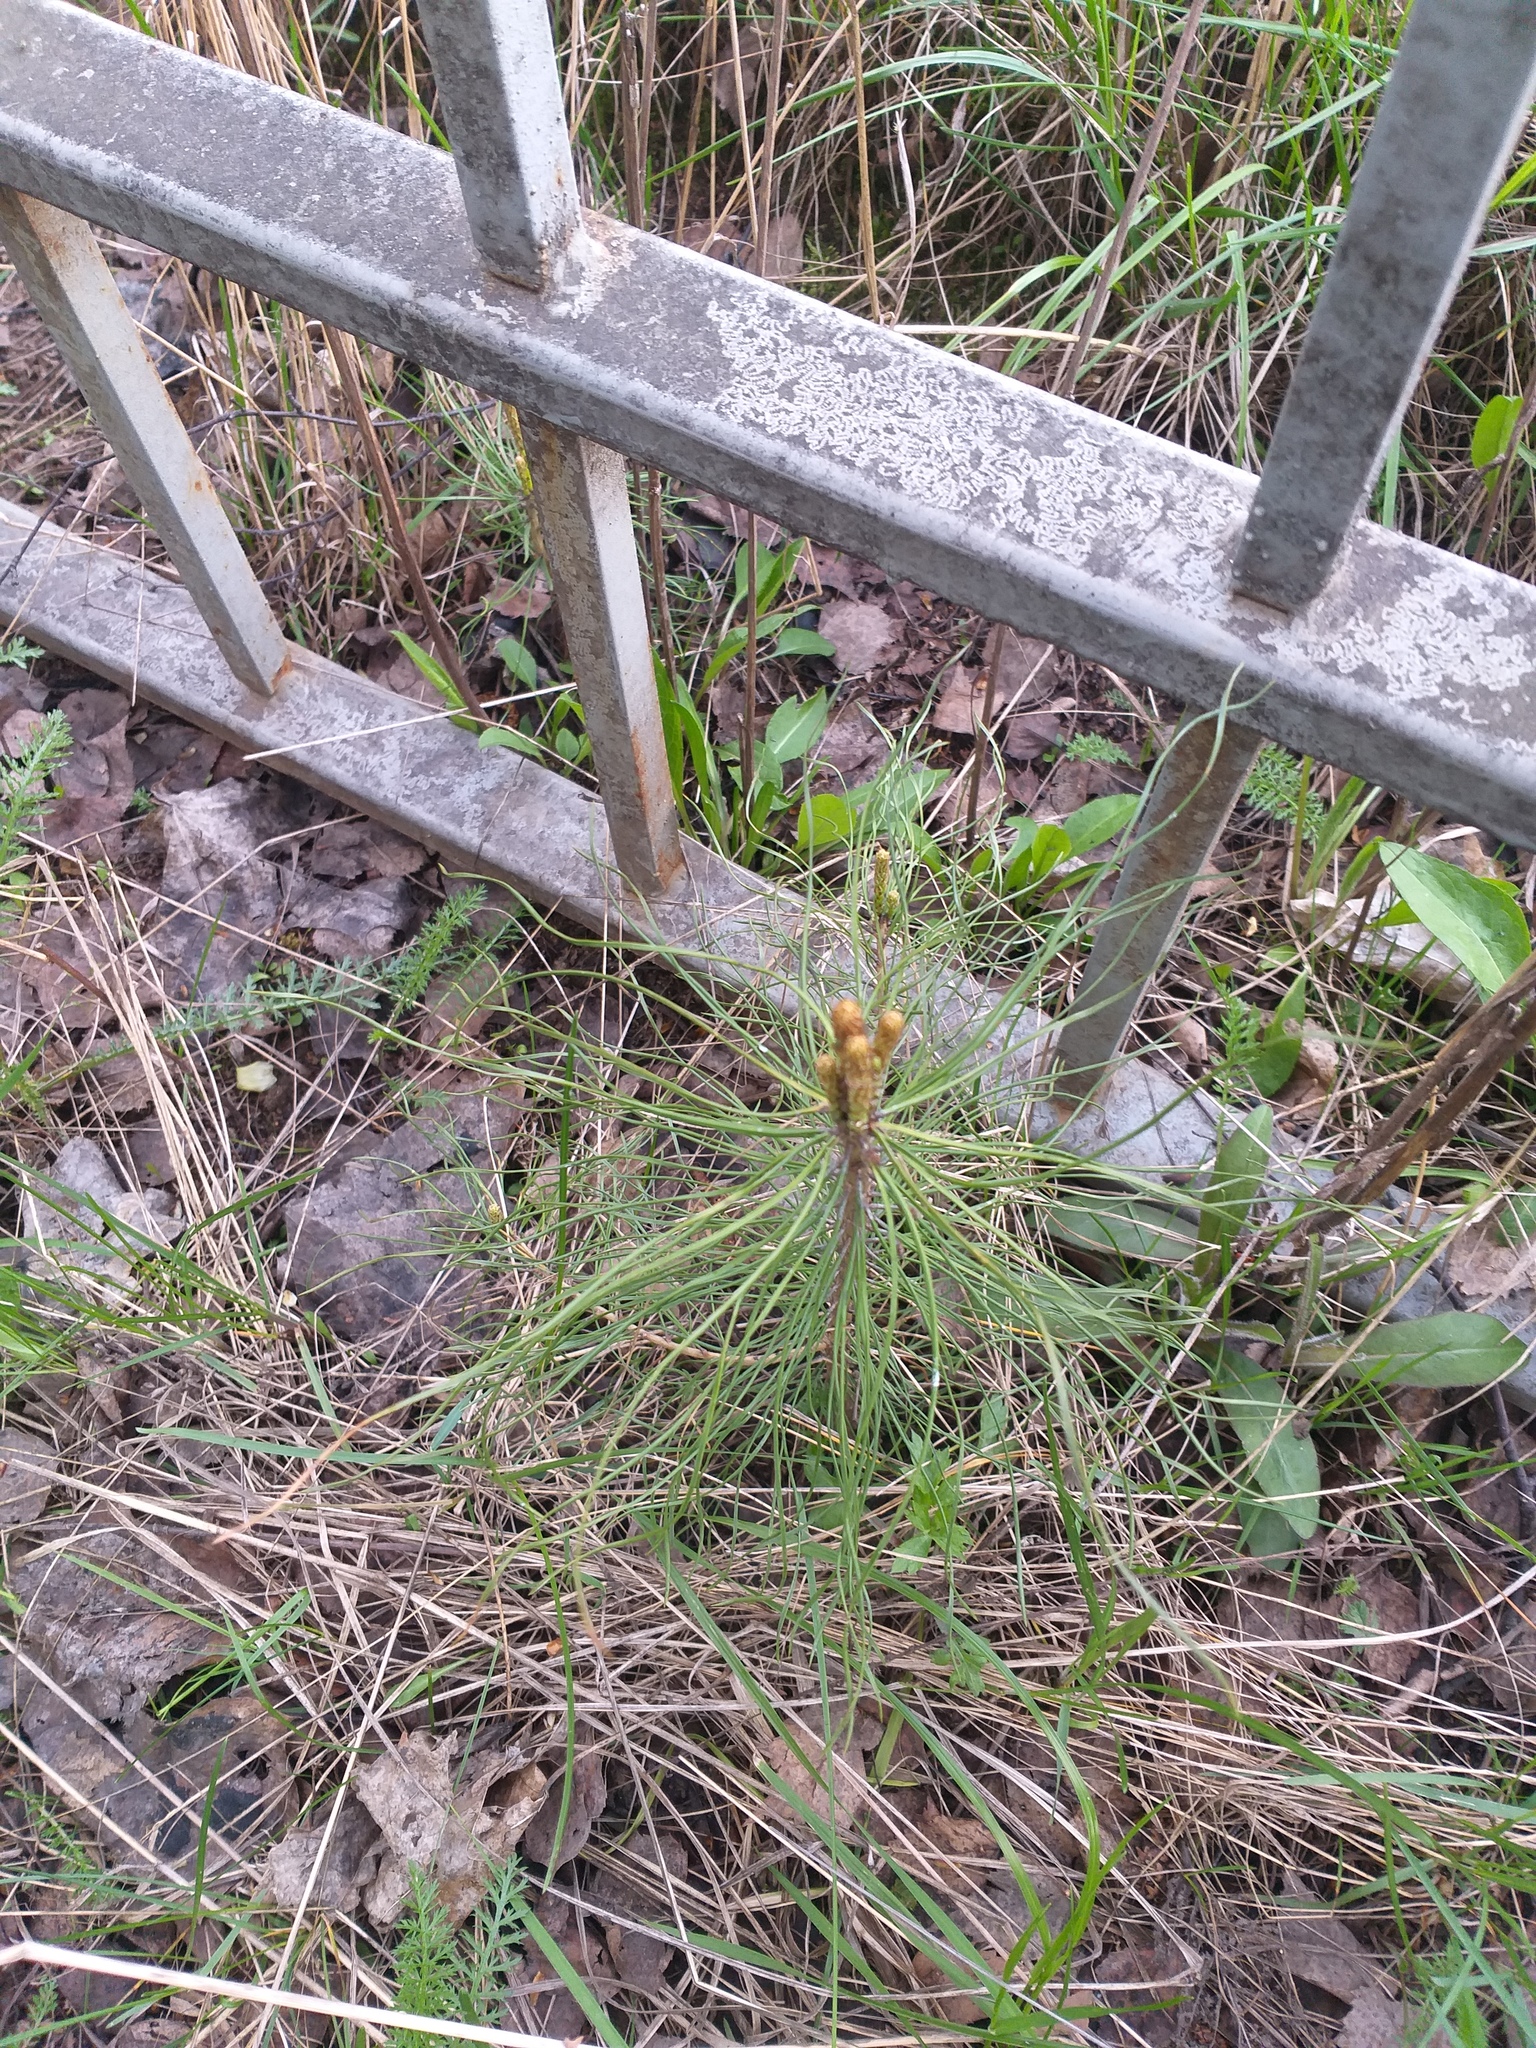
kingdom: Plantae
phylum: Tracheophyta
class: Pinopsida
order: Pinales
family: Pinaceae
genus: Pinus
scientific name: Pinus sylvestris
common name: Scots pine
